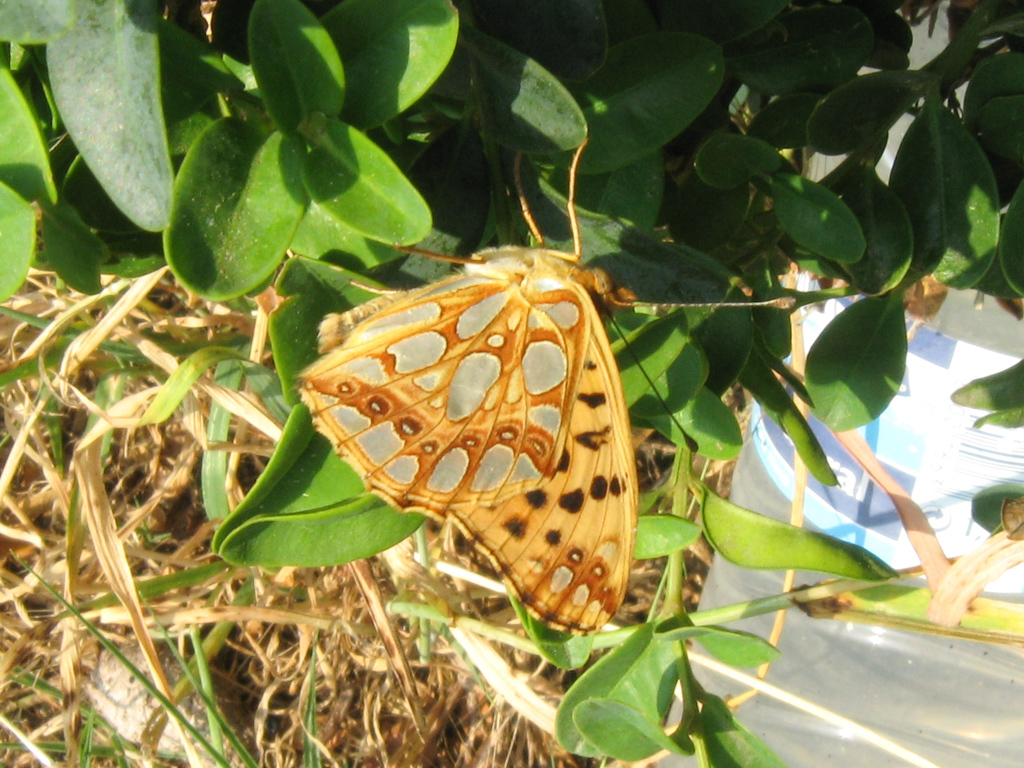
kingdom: Animalia
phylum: Arthropoda
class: Insecta
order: Lepidoptera
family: Nymphalidae
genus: Issoria
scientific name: Issoria lathonia
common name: Queen of spain fritillary
